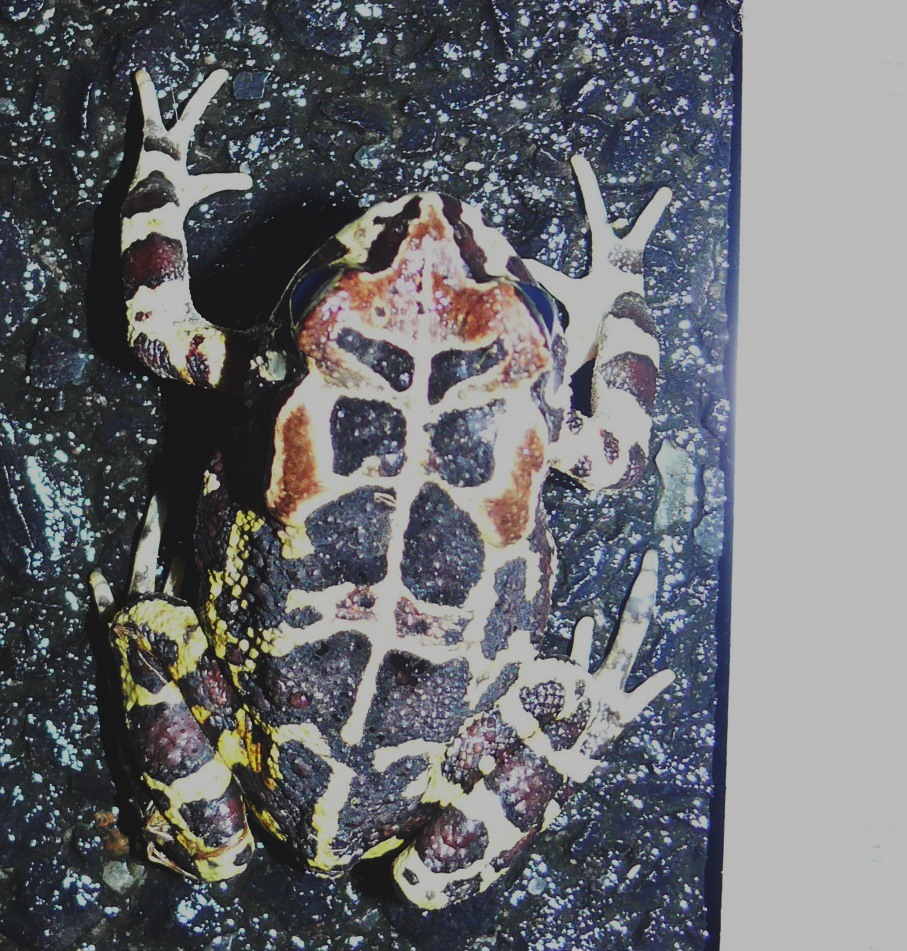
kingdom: Animalia
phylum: Chordata
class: Amphibia
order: Anura
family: Bufonidae
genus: Sclerophrys
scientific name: Sclerophrys pantherina
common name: Panther toad
